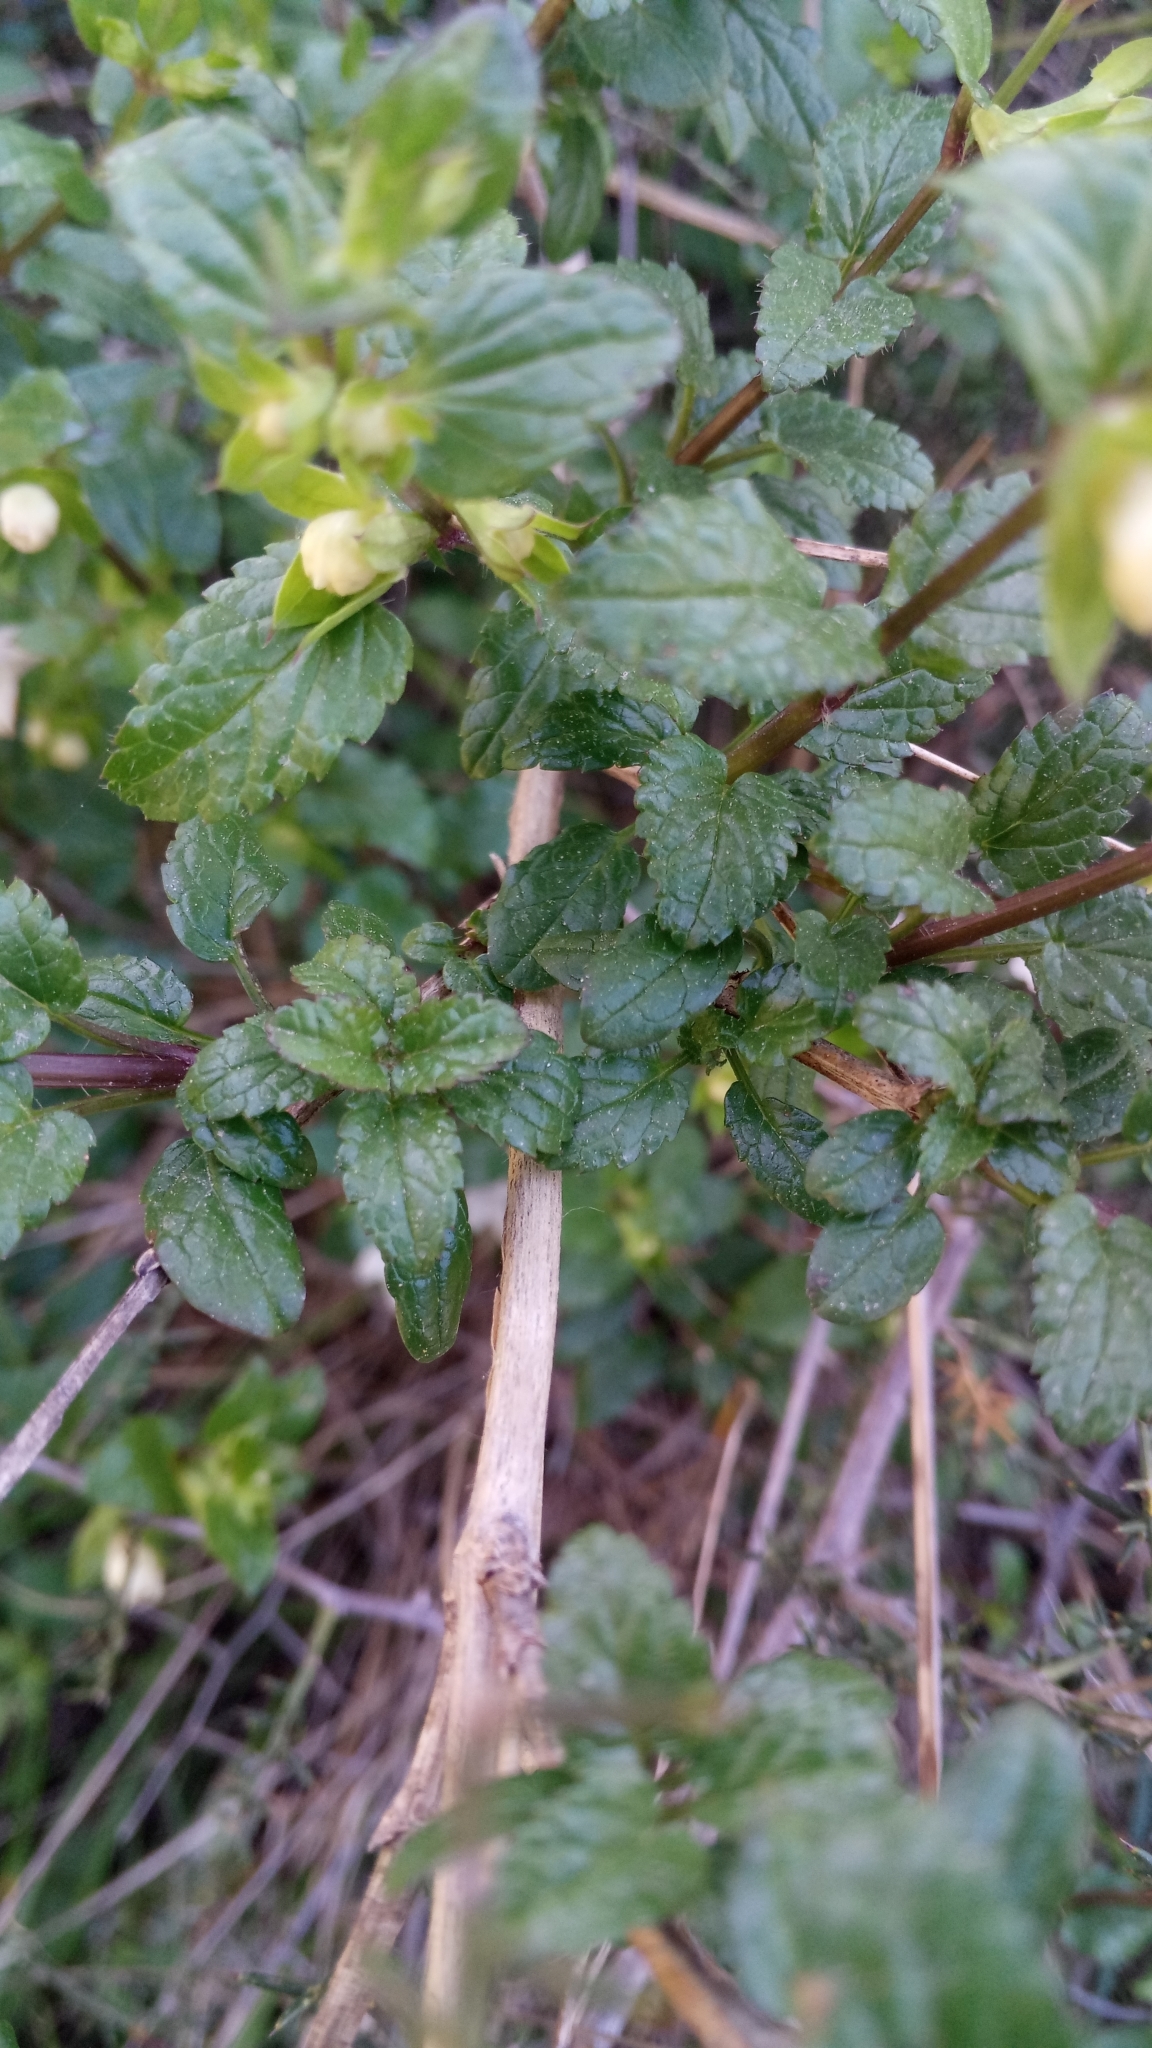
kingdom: Plantae
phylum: Tracheophyta
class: Magnoliopsida
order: Lamiales
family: Lamiaceae
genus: Prasium
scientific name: Prasium majus
